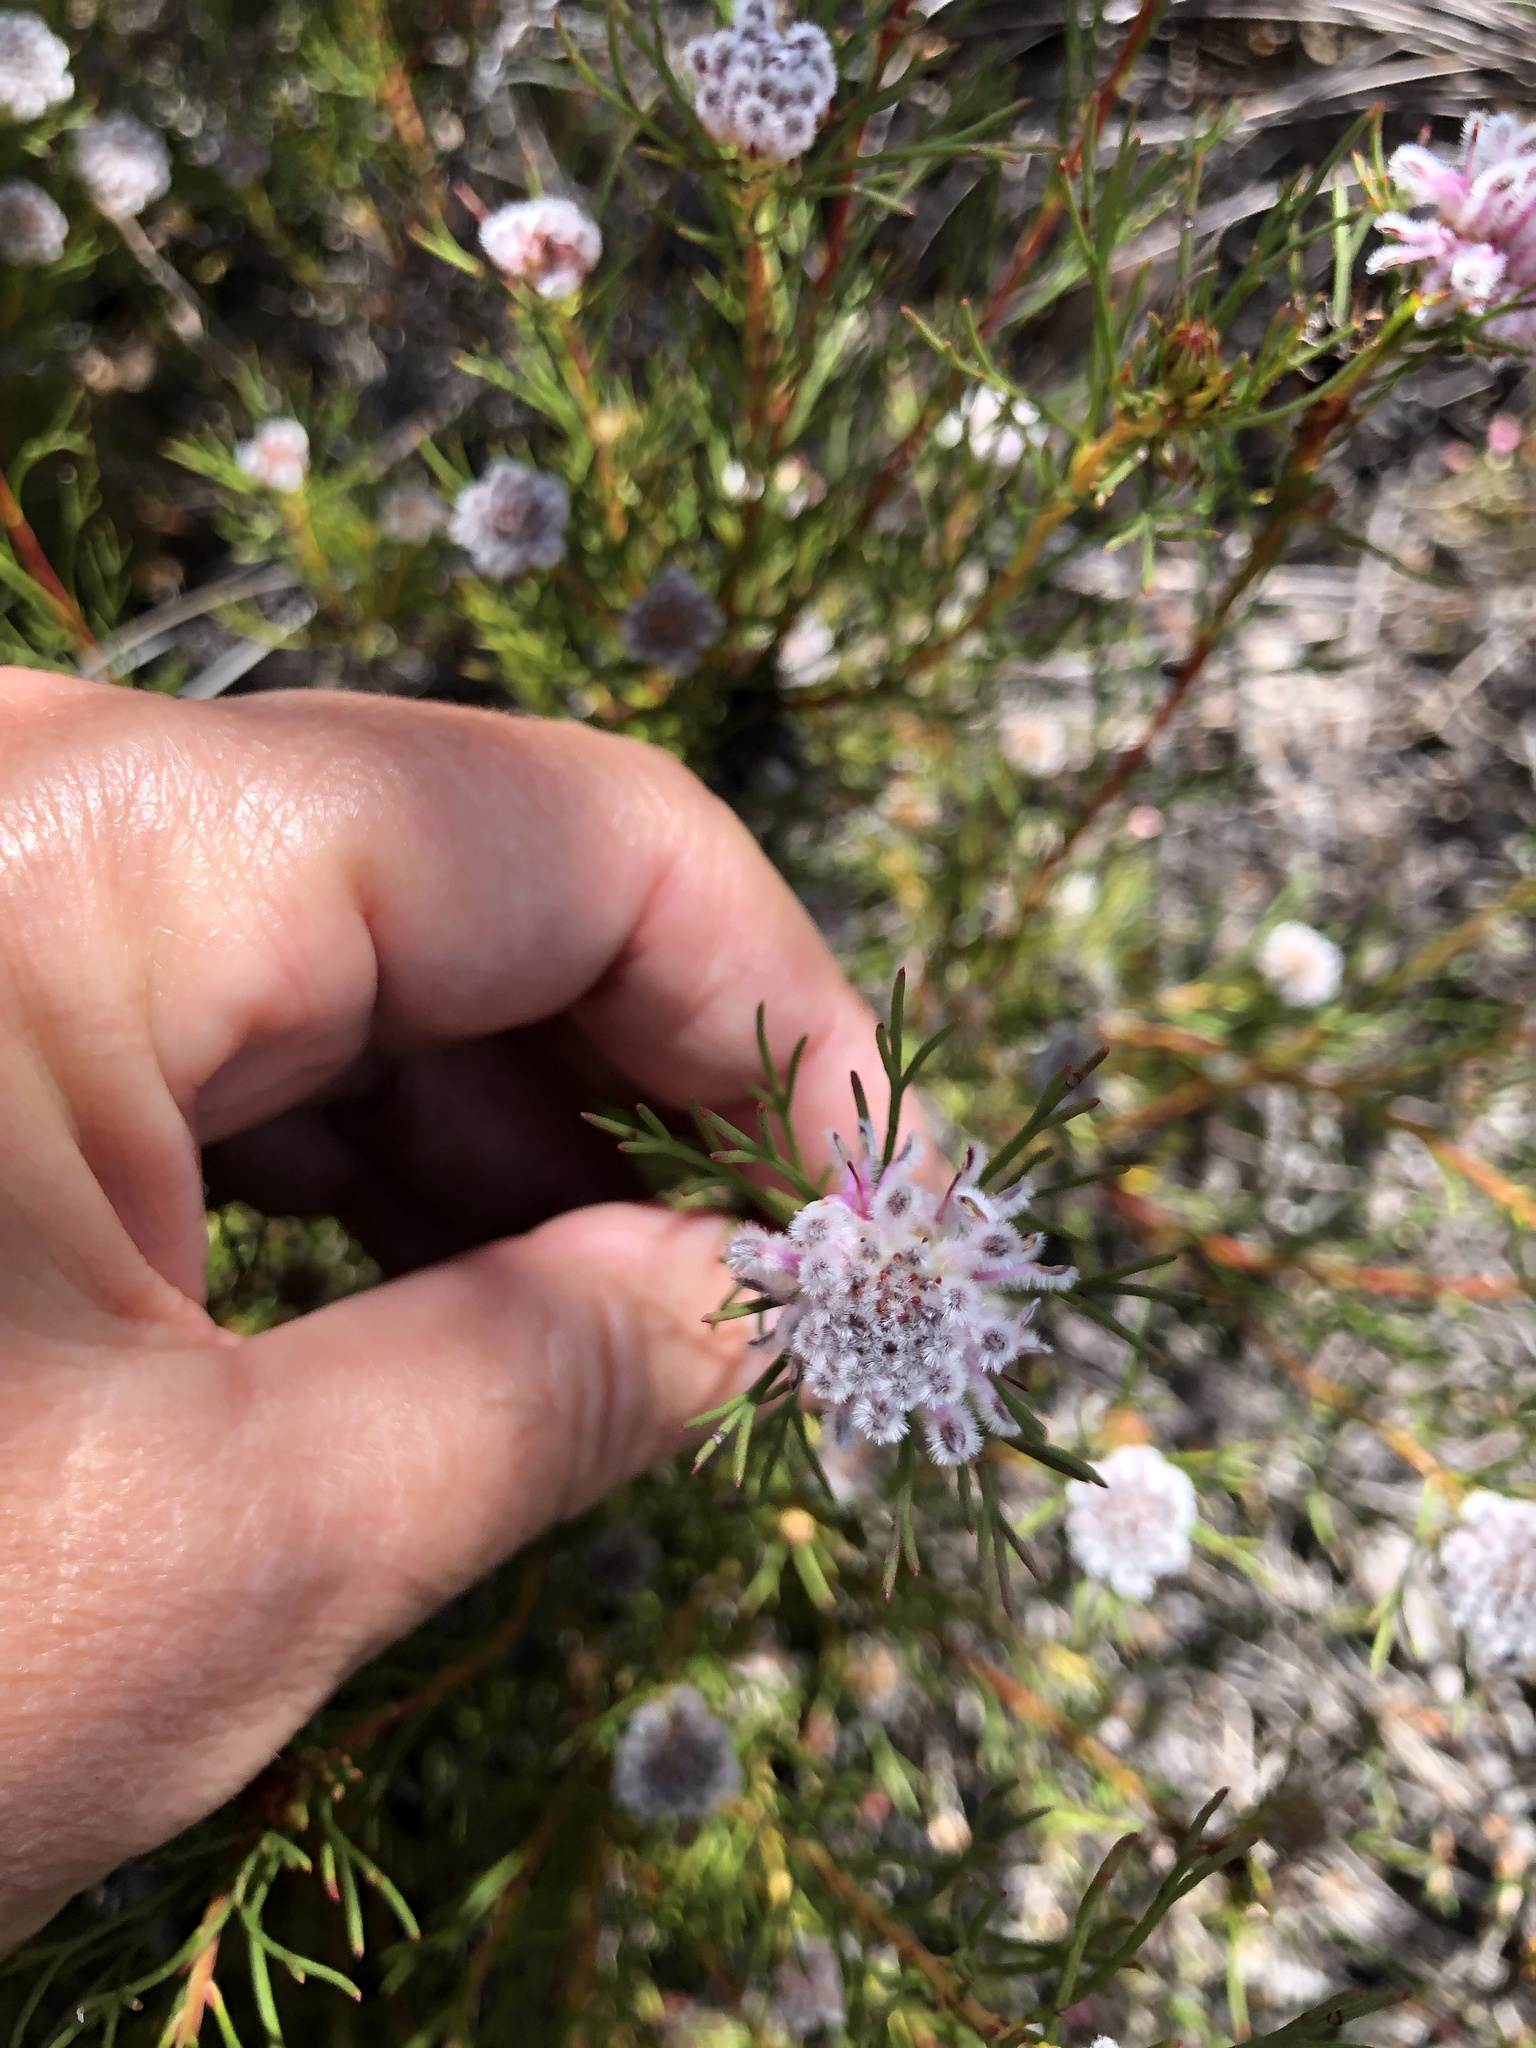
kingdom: Plantae
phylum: Tracheophyta
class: Magnoliopsida
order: Proteales
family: Proteaceae
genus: Serruria
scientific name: Serruria nervosa
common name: Fluted spiderhead
